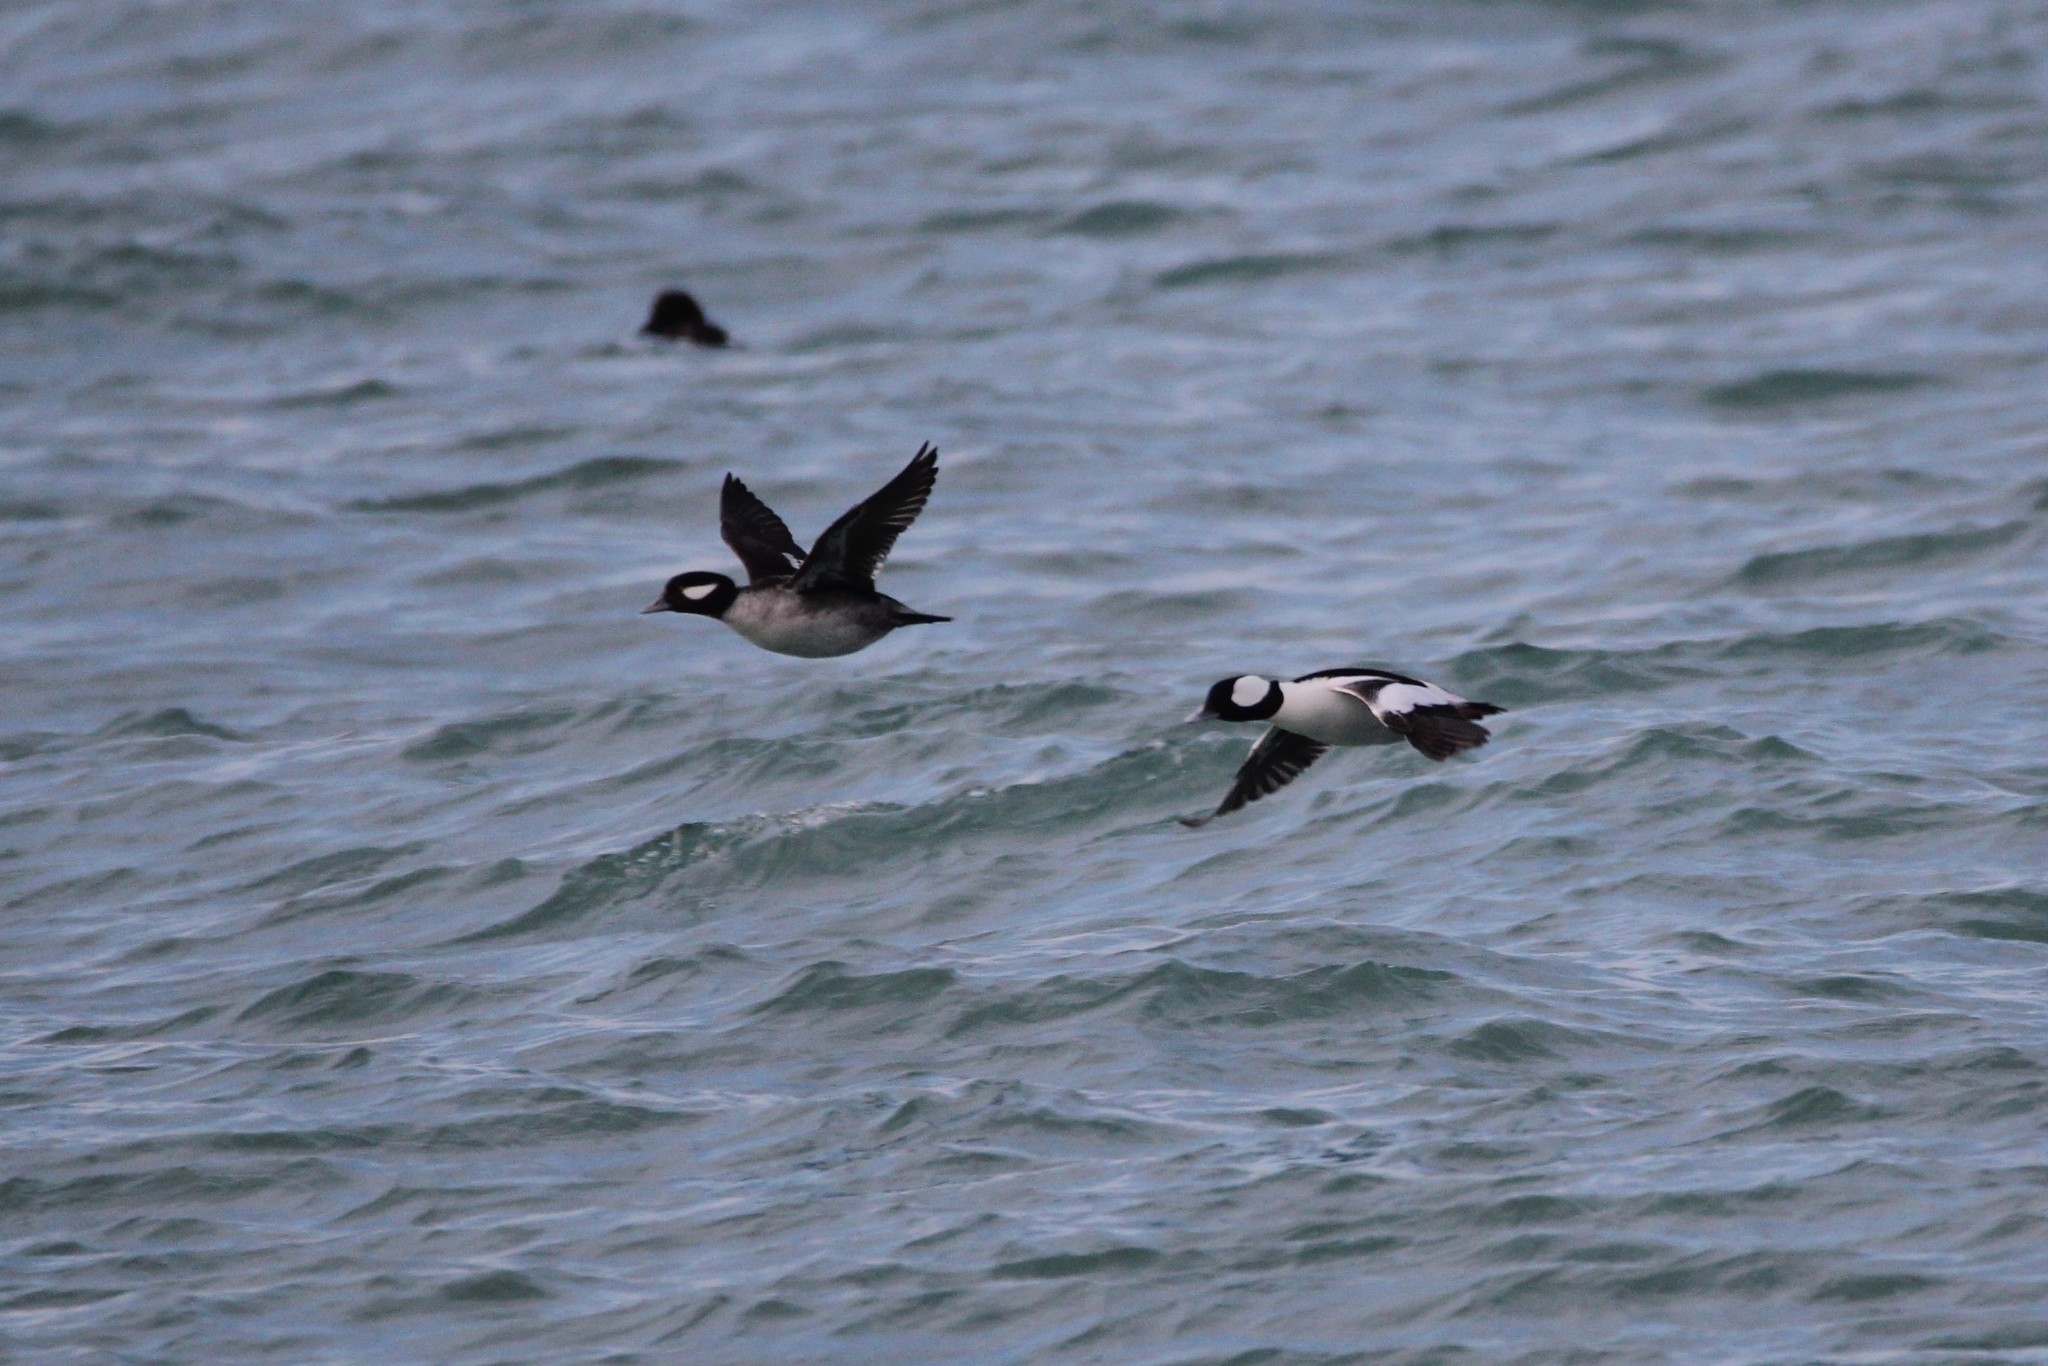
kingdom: Animalia
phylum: Chordata
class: Aves
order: Anseriformes
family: Anatidae
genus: Bucephala
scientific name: Bucephala albeola
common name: Bufflehead
